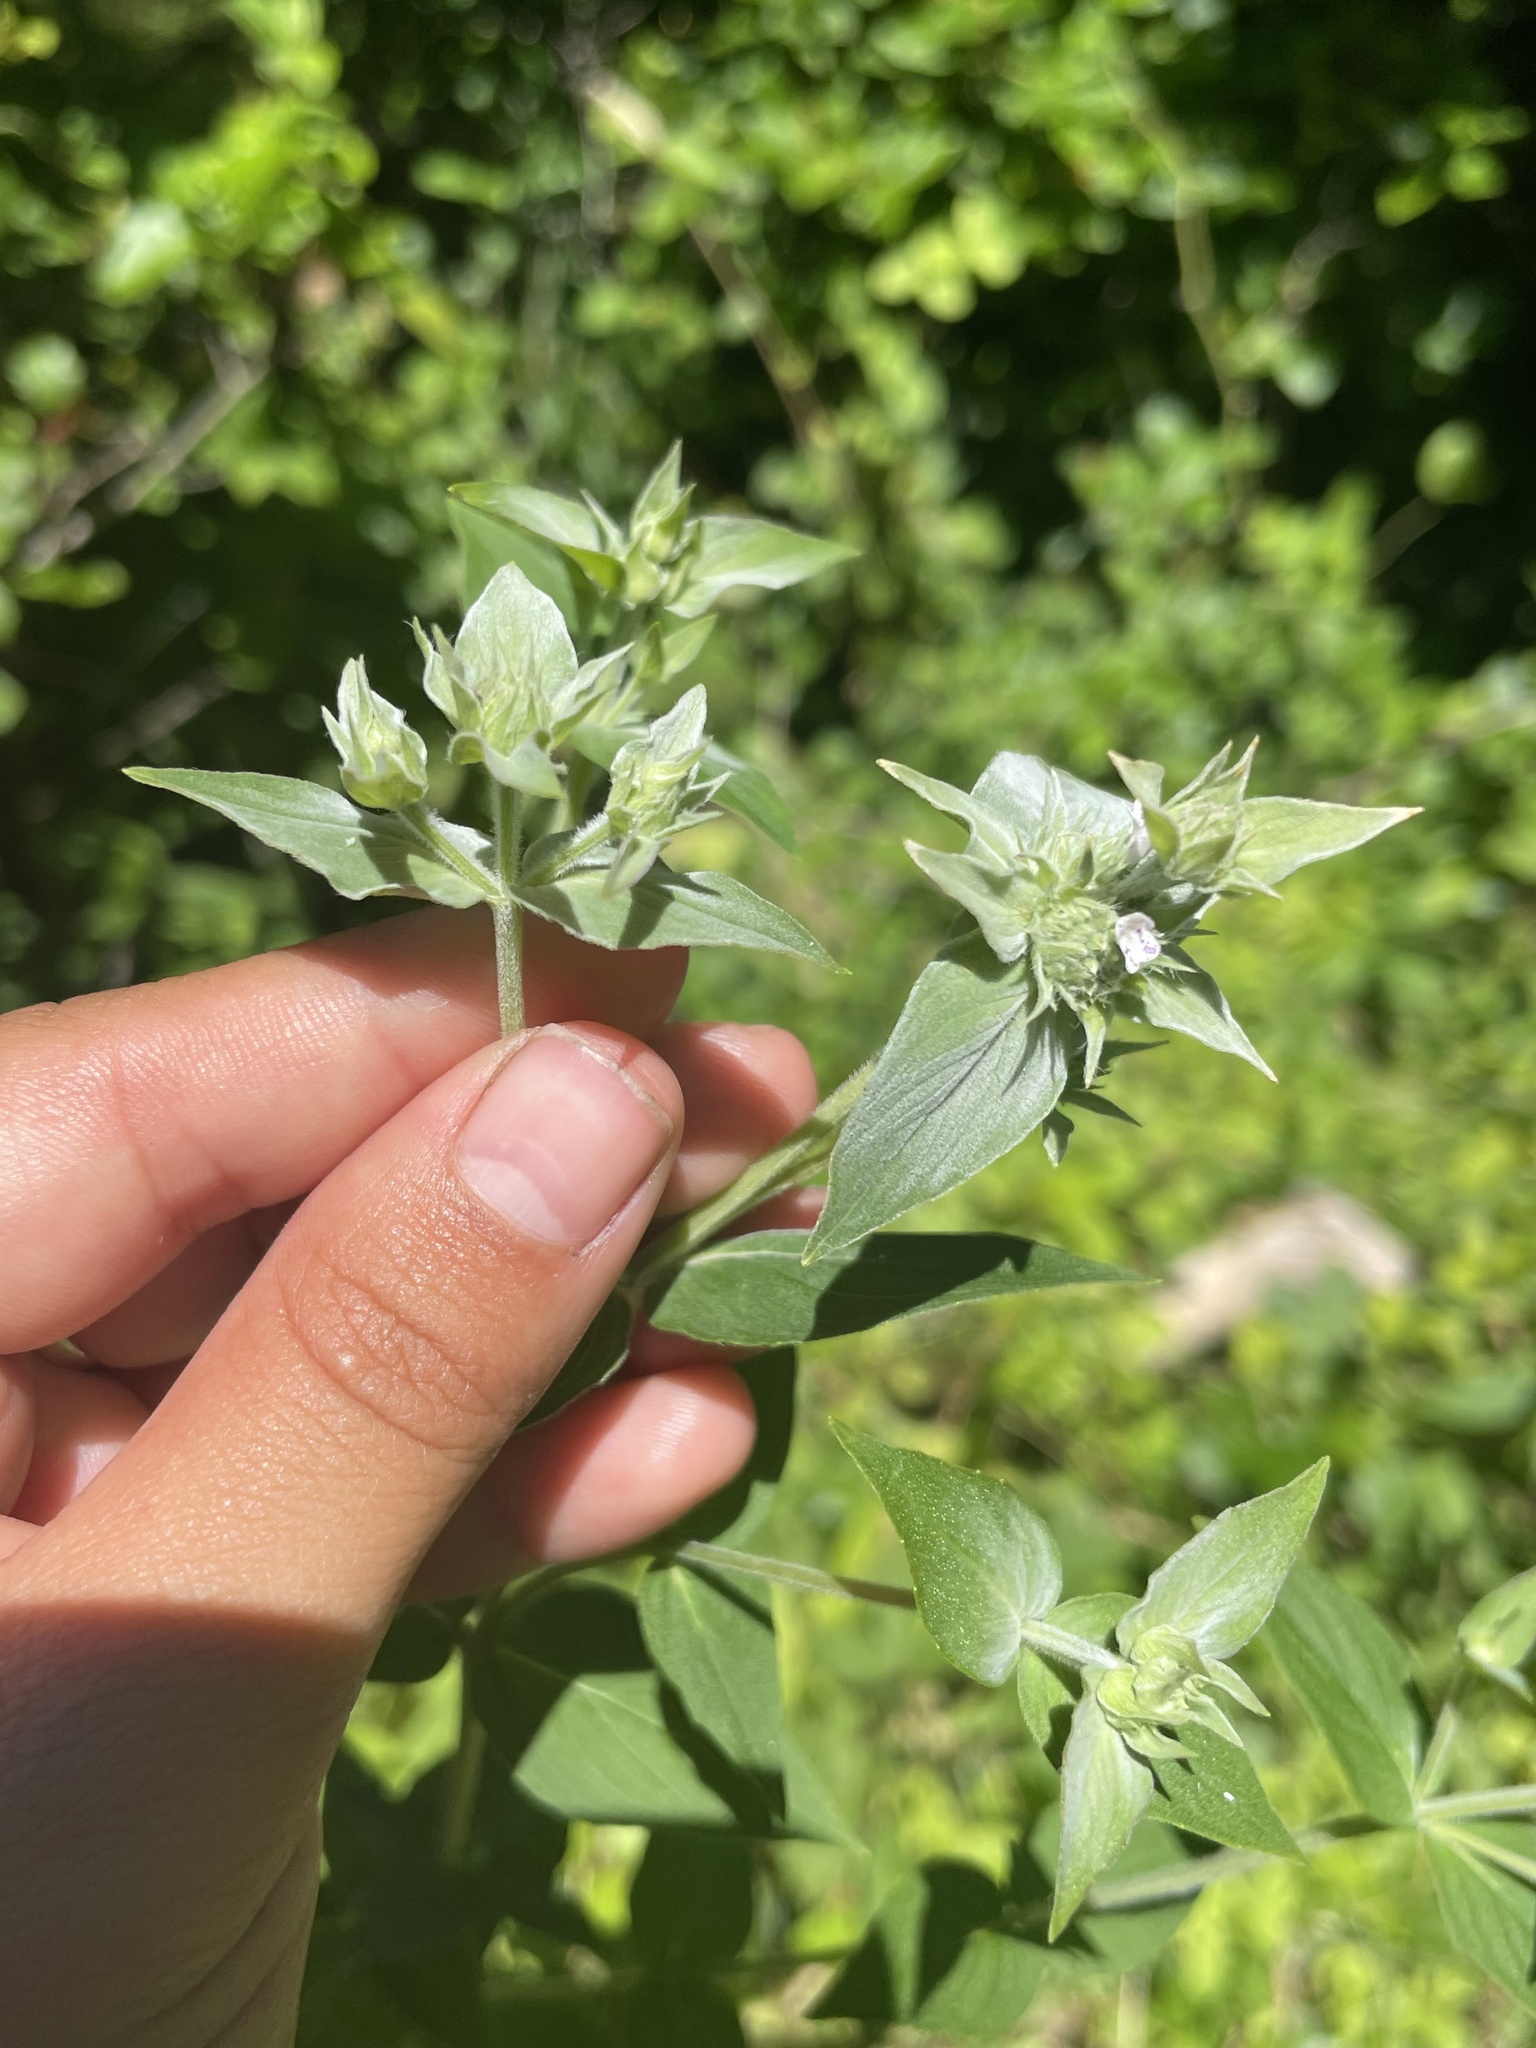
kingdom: Plantae
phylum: Tracheophyta
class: Magnoliopsida
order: Lamiales
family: Lamiaceae
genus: Pycnanthemum
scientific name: Pycnanthemum muticum
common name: Blunt mountain-mint
